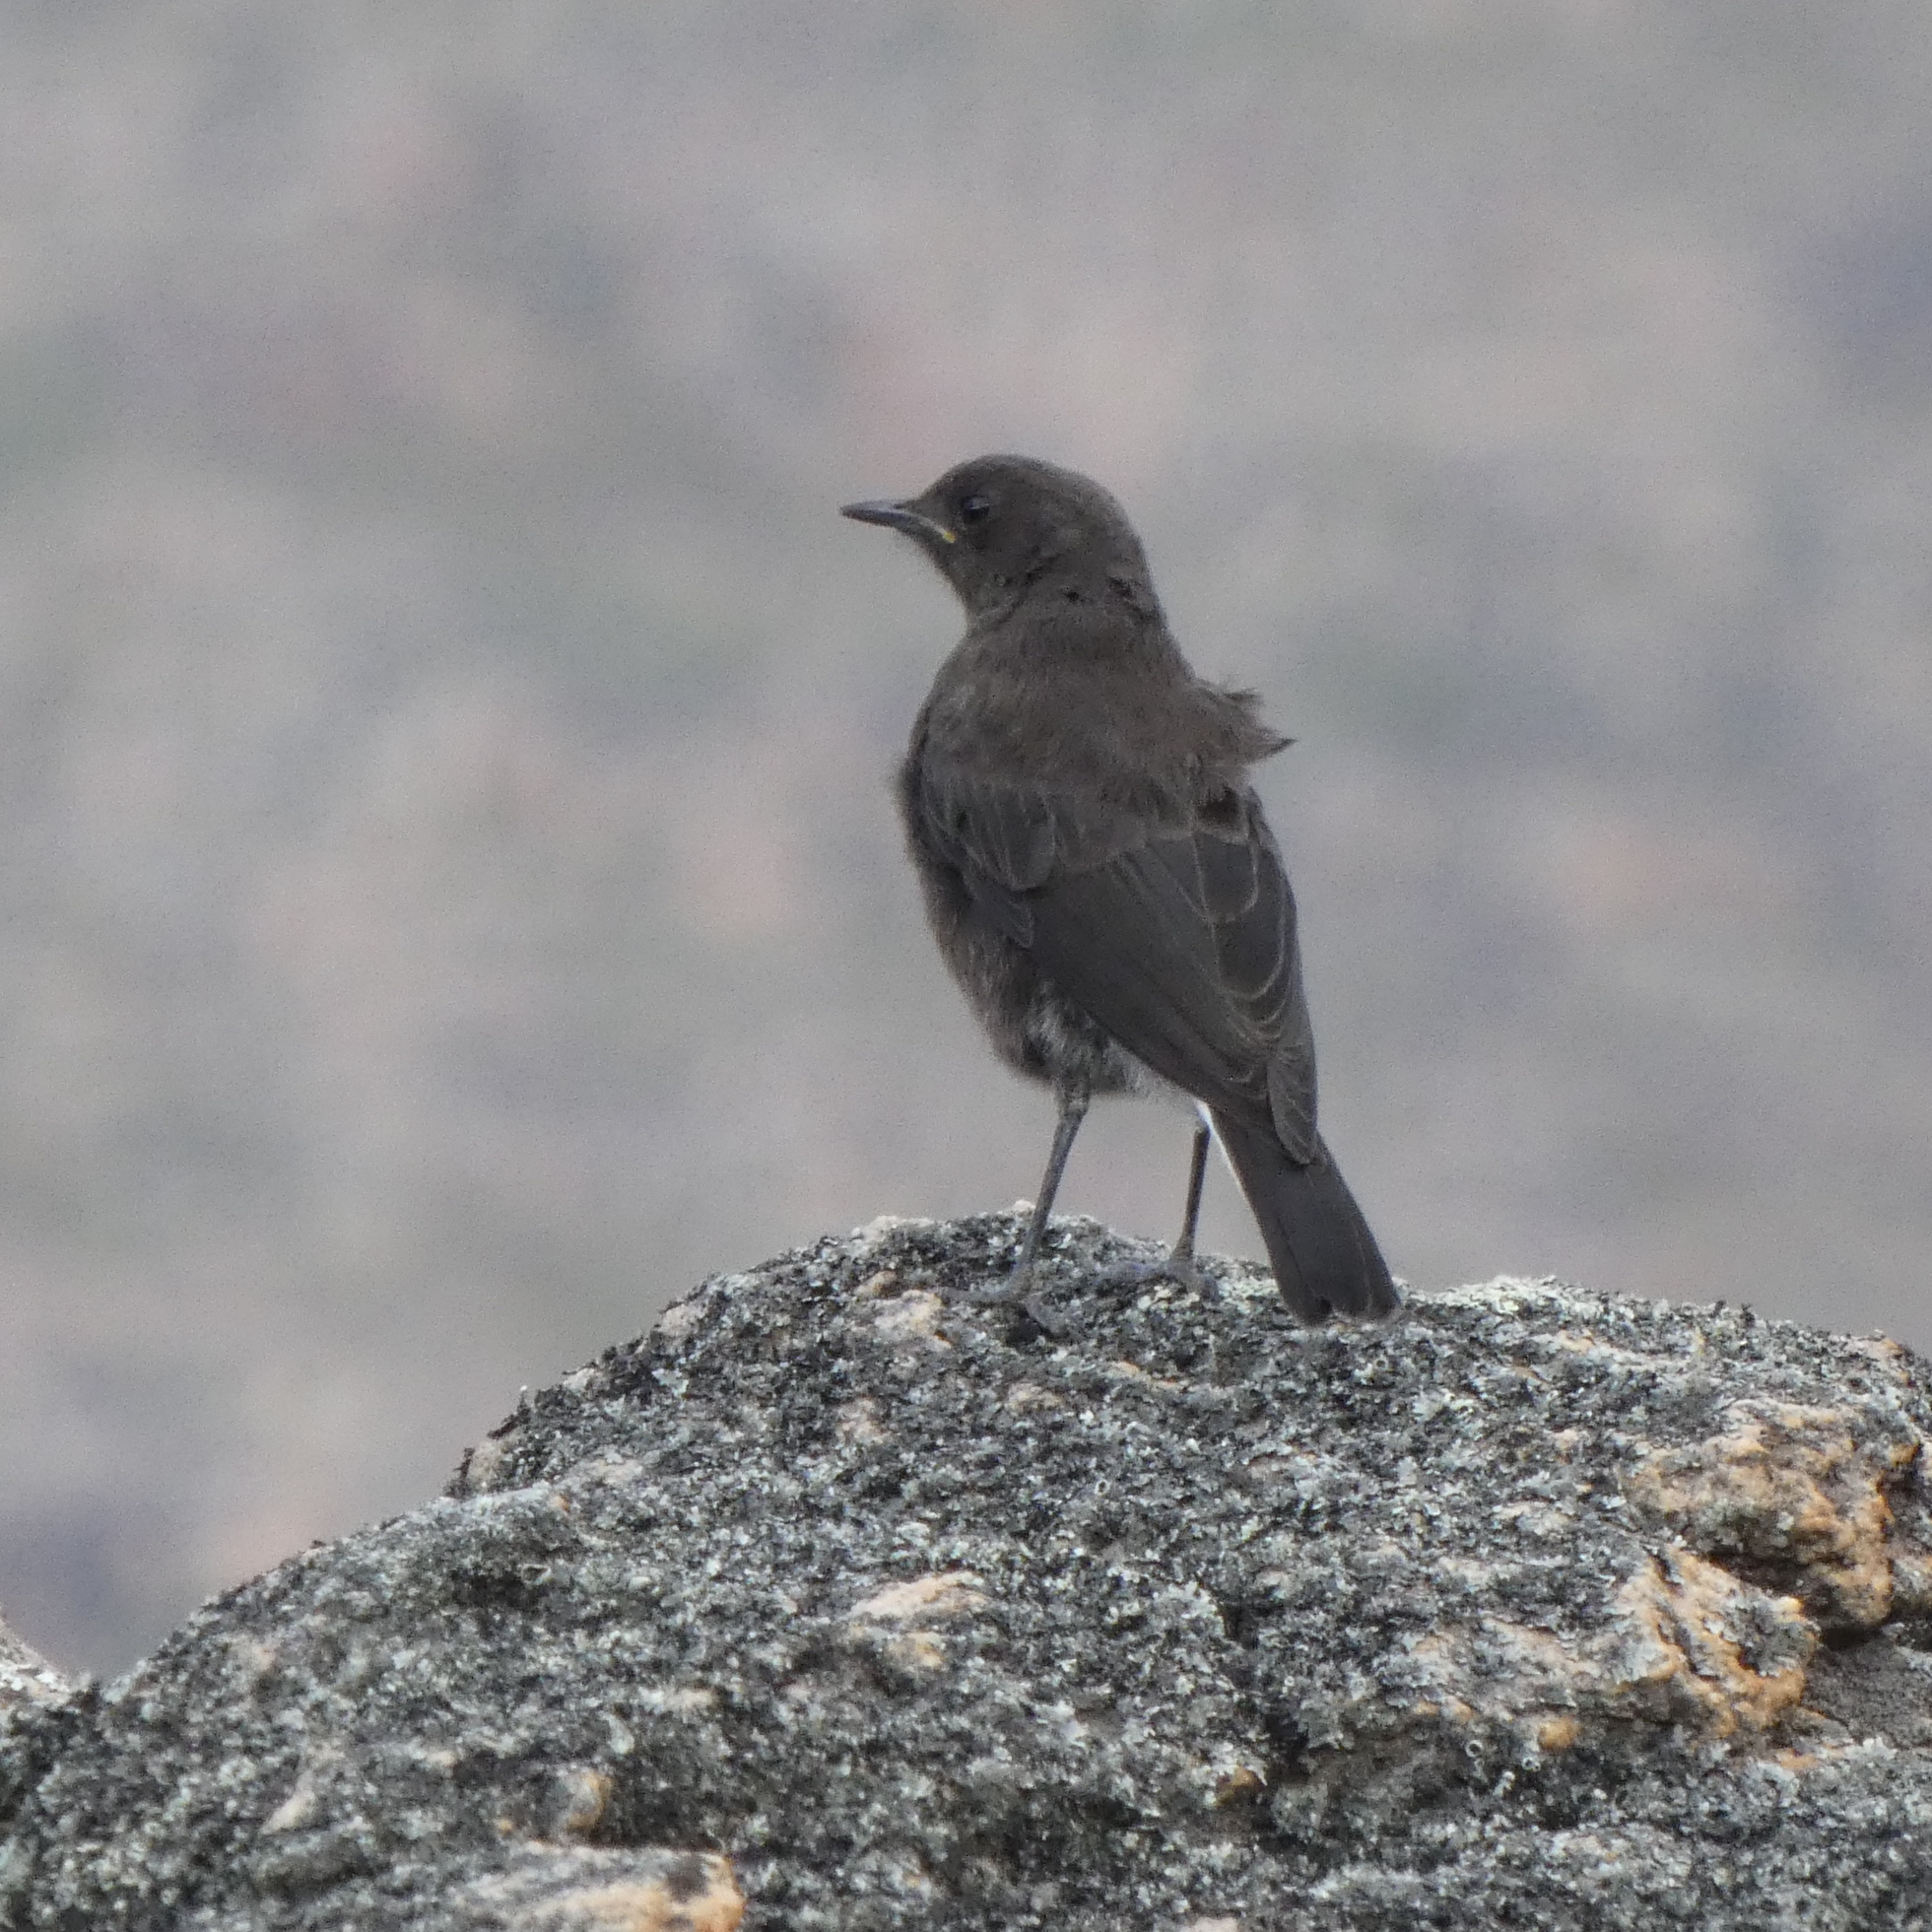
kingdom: Animalia
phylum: Chordata
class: Aves
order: Passeriformes
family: Muscicapidae
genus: Oenanthe
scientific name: Oenanthe monticola
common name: Mountain wheatear
